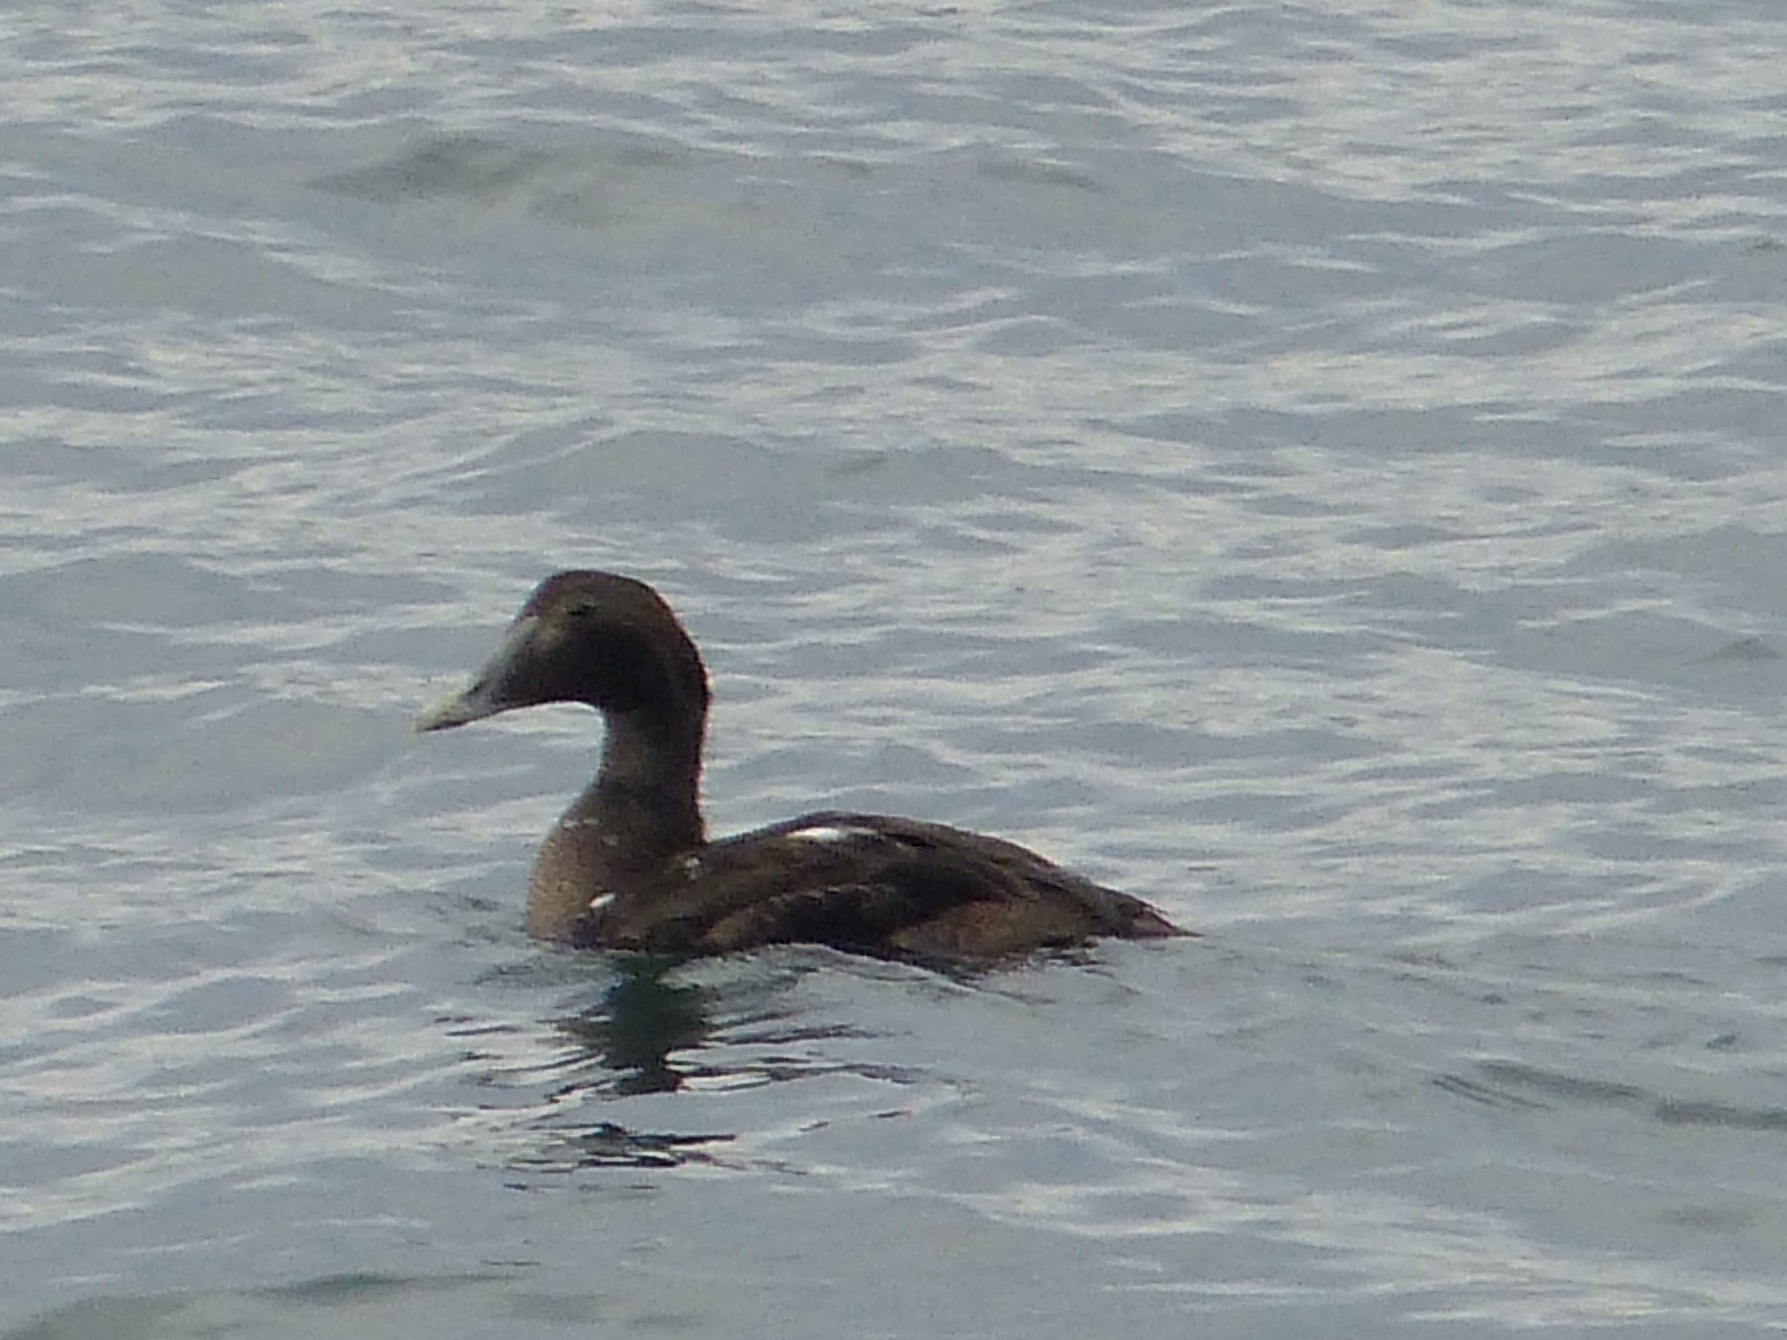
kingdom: Animalia
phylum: Chordata
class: Aves
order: Anseriformes
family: Anatidae
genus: Somateria
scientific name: Somateria mollissima
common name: Common eider
